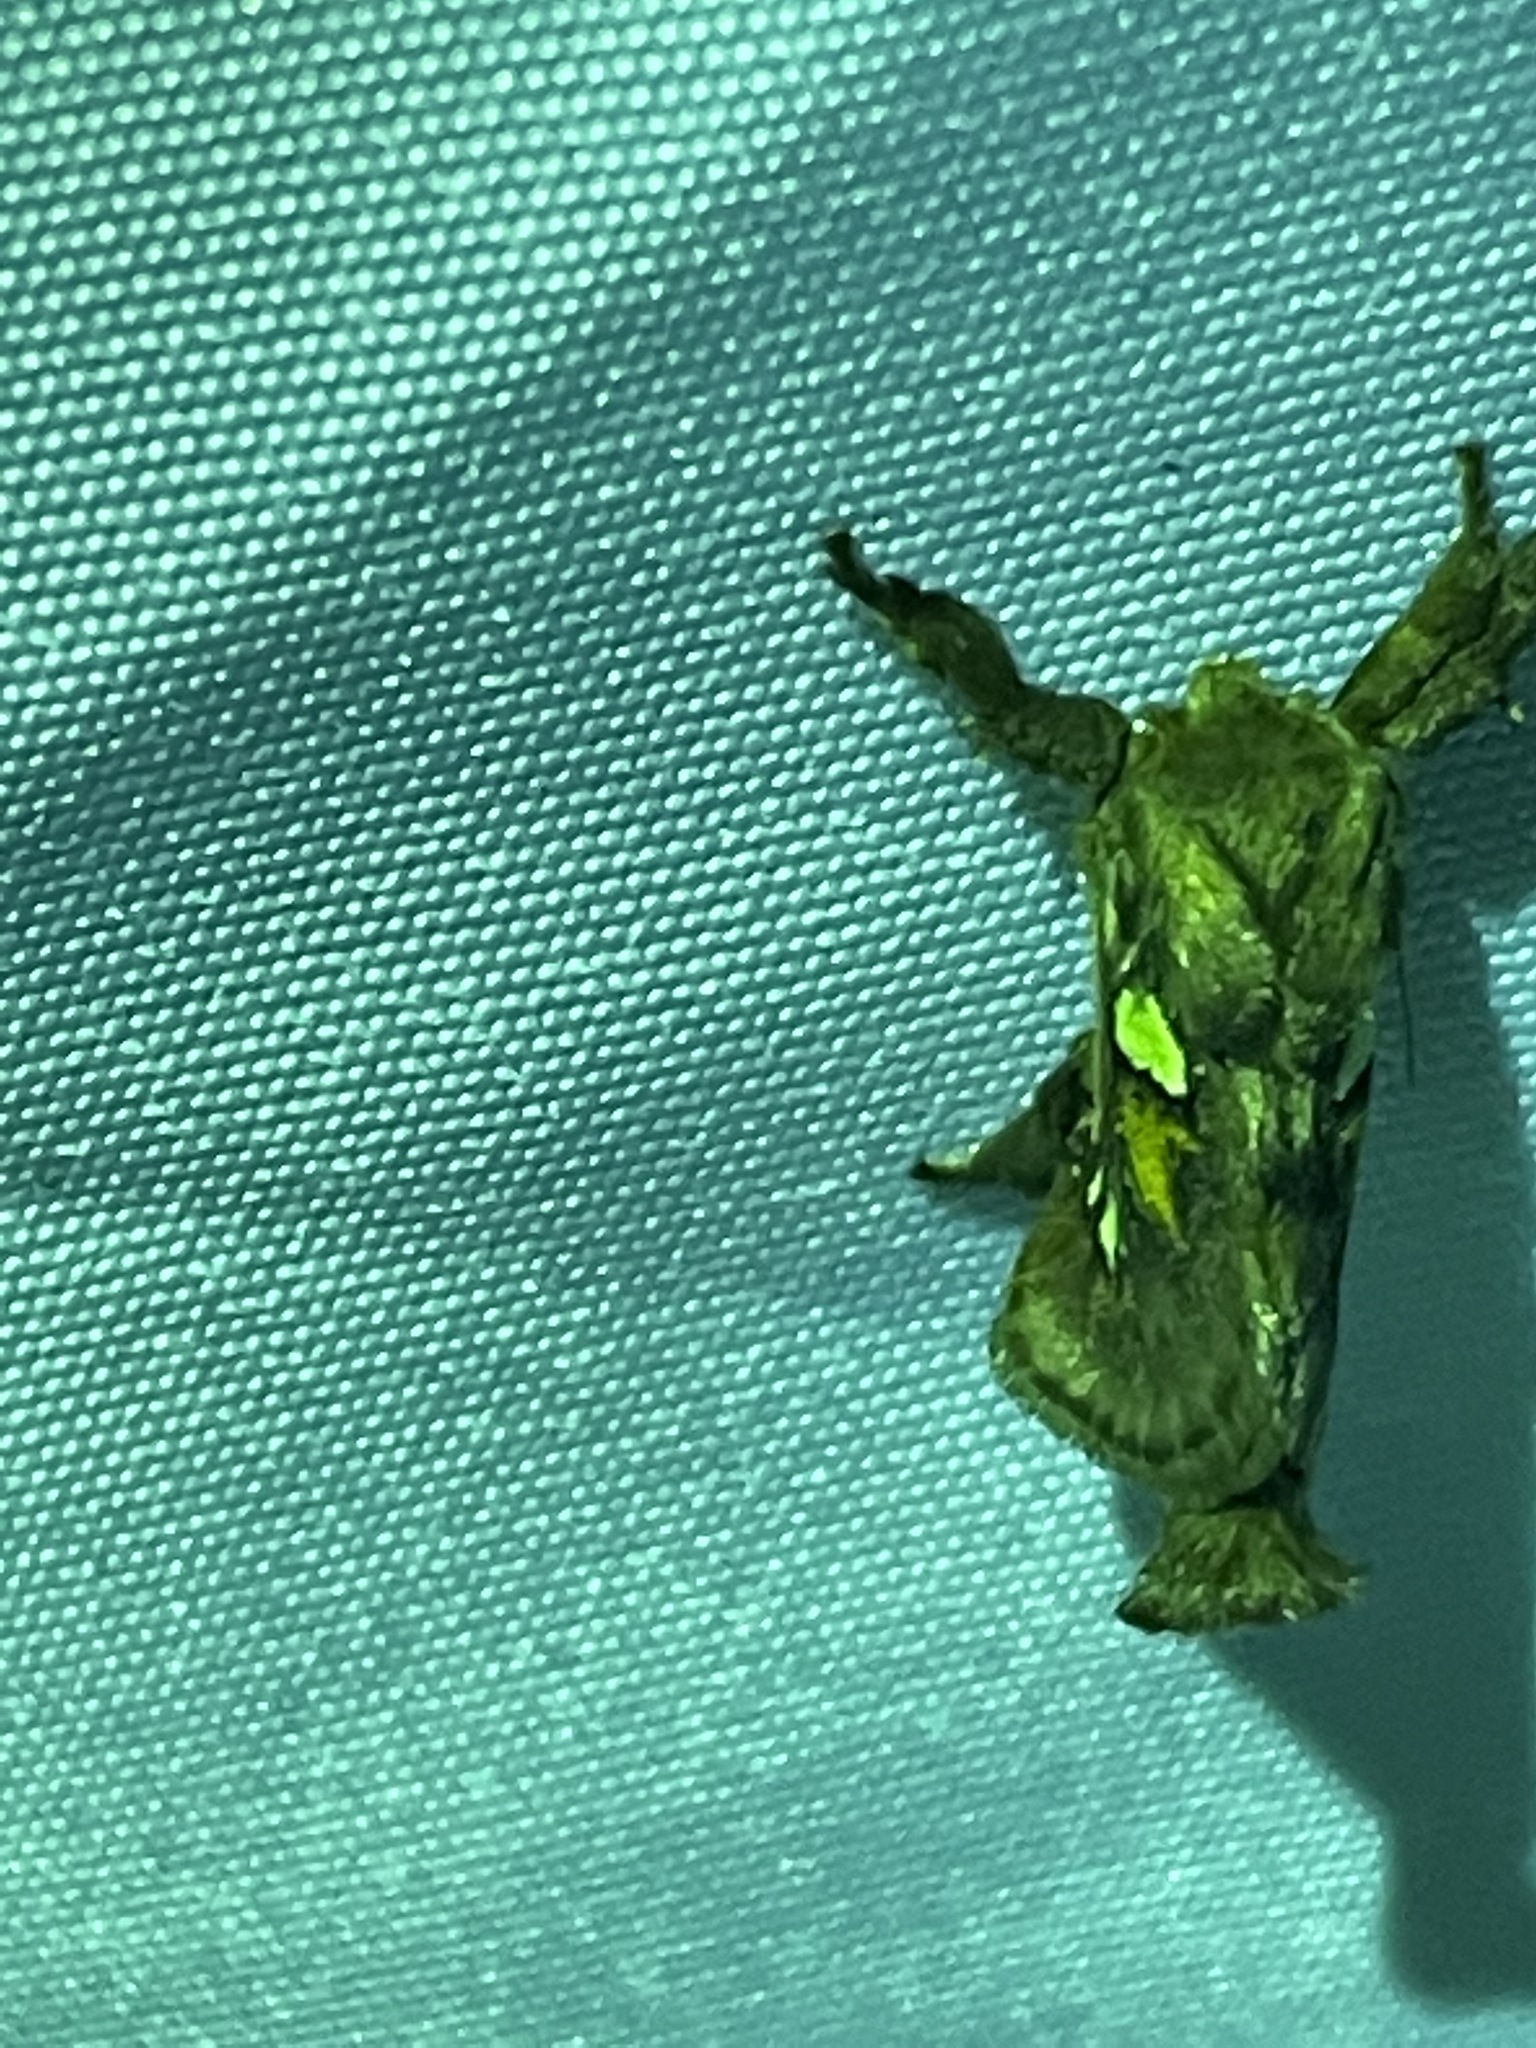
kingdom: Animalia
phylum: Arthropoda
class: Insecta
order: Lepidoptera
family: Limacodidae
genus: Euclea
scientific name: Euclea delphinii
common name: Spiny oak-slug moth
